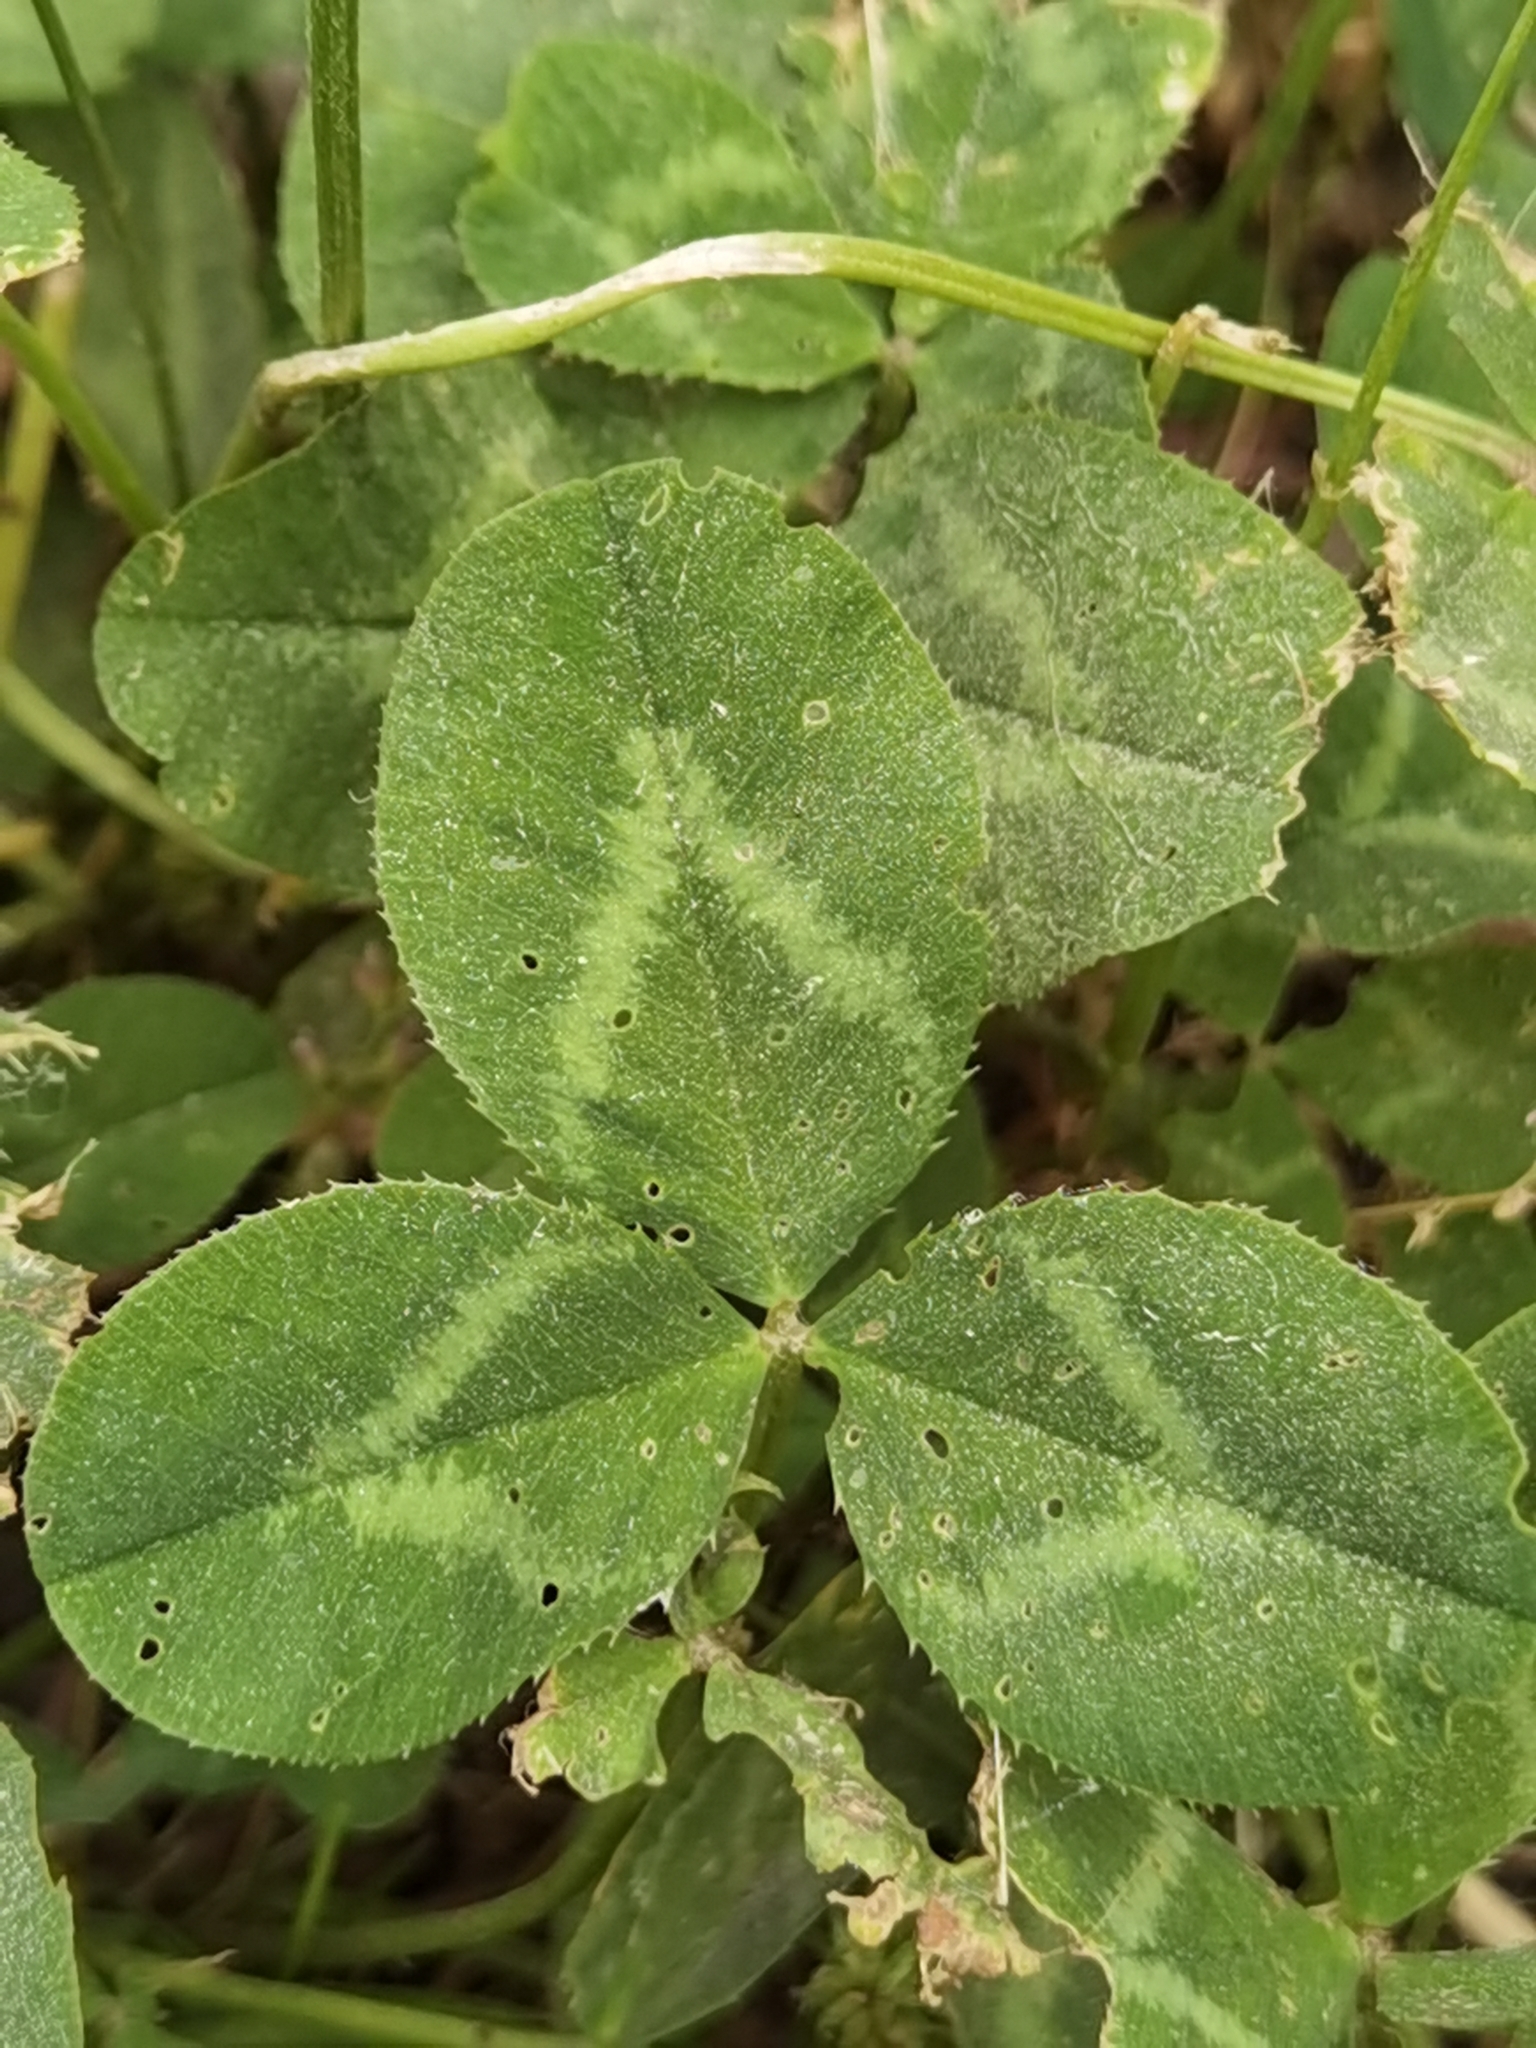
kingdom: Plantae
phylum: Tracheophyta
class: Magnoliopsida
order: Fabales
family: Fabaceae
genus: Trifolium
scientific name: Trifolium repens
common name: White clover
